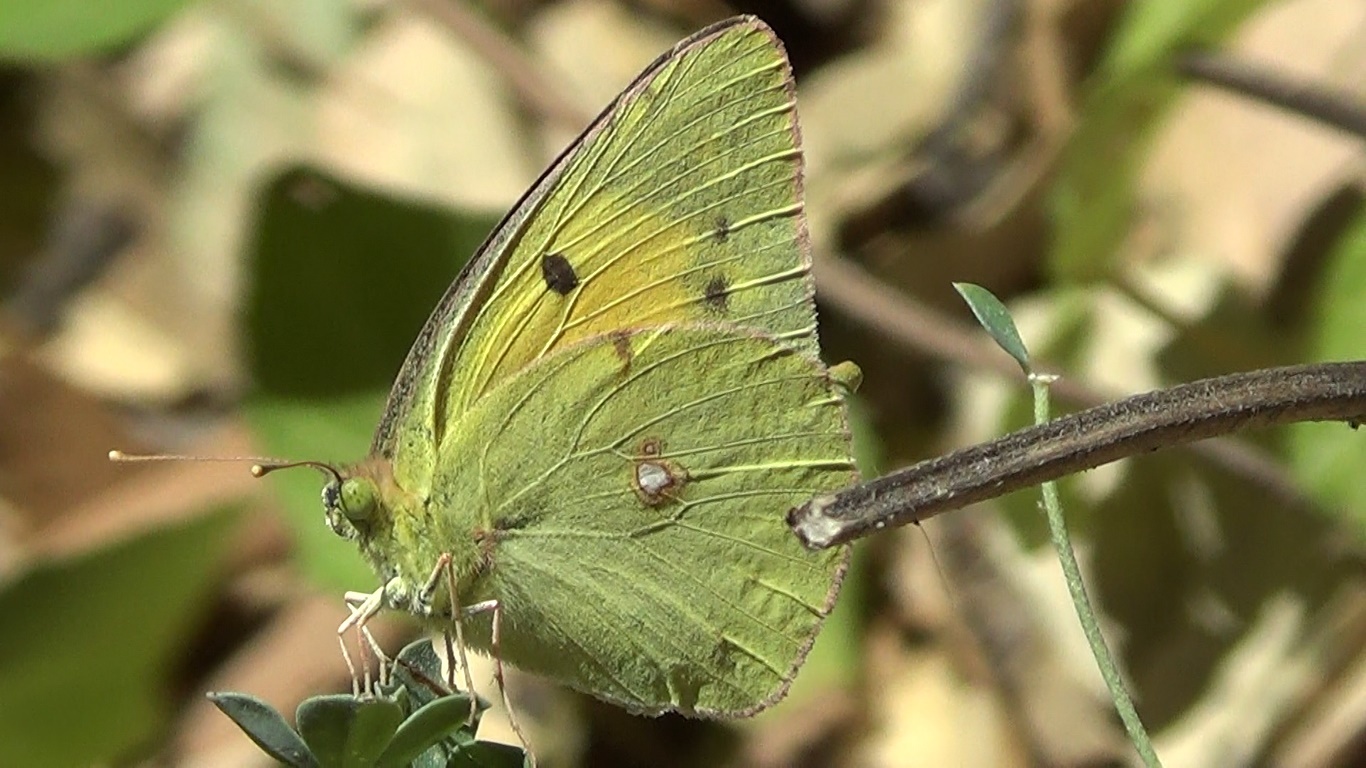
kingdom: Animalia
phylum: Arthropoda
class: Insecta
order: Lepidoptera
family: Pieridae
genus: Colias
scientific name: Colias croceus
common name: Clouded yellow
